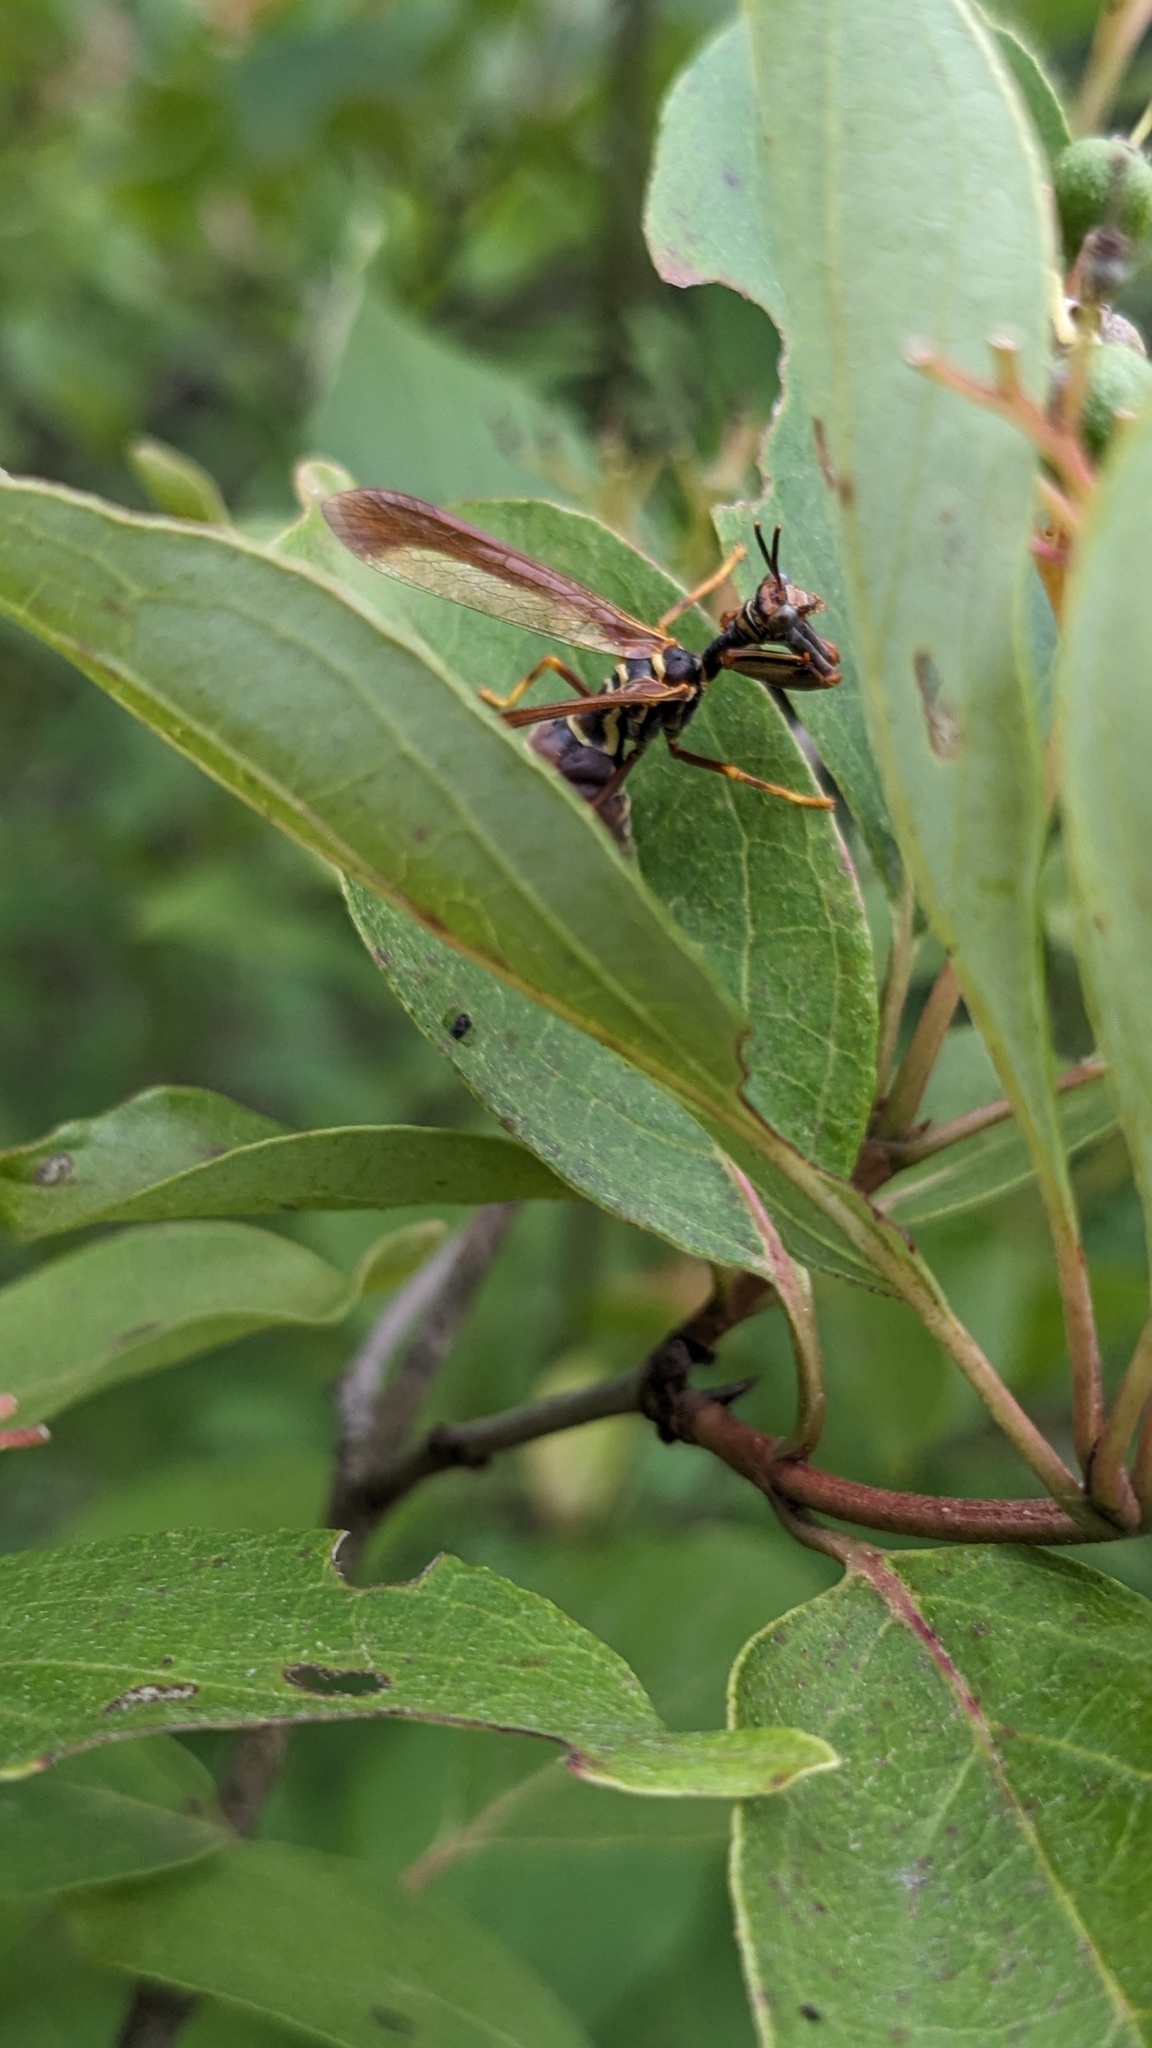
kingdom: Animalia
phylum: Arthropoda
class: Insecta
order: Neuroptera
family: Mantispidae
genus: Climaciella
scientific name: Climaciella brunnea
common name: Brown wasp mantidfly
